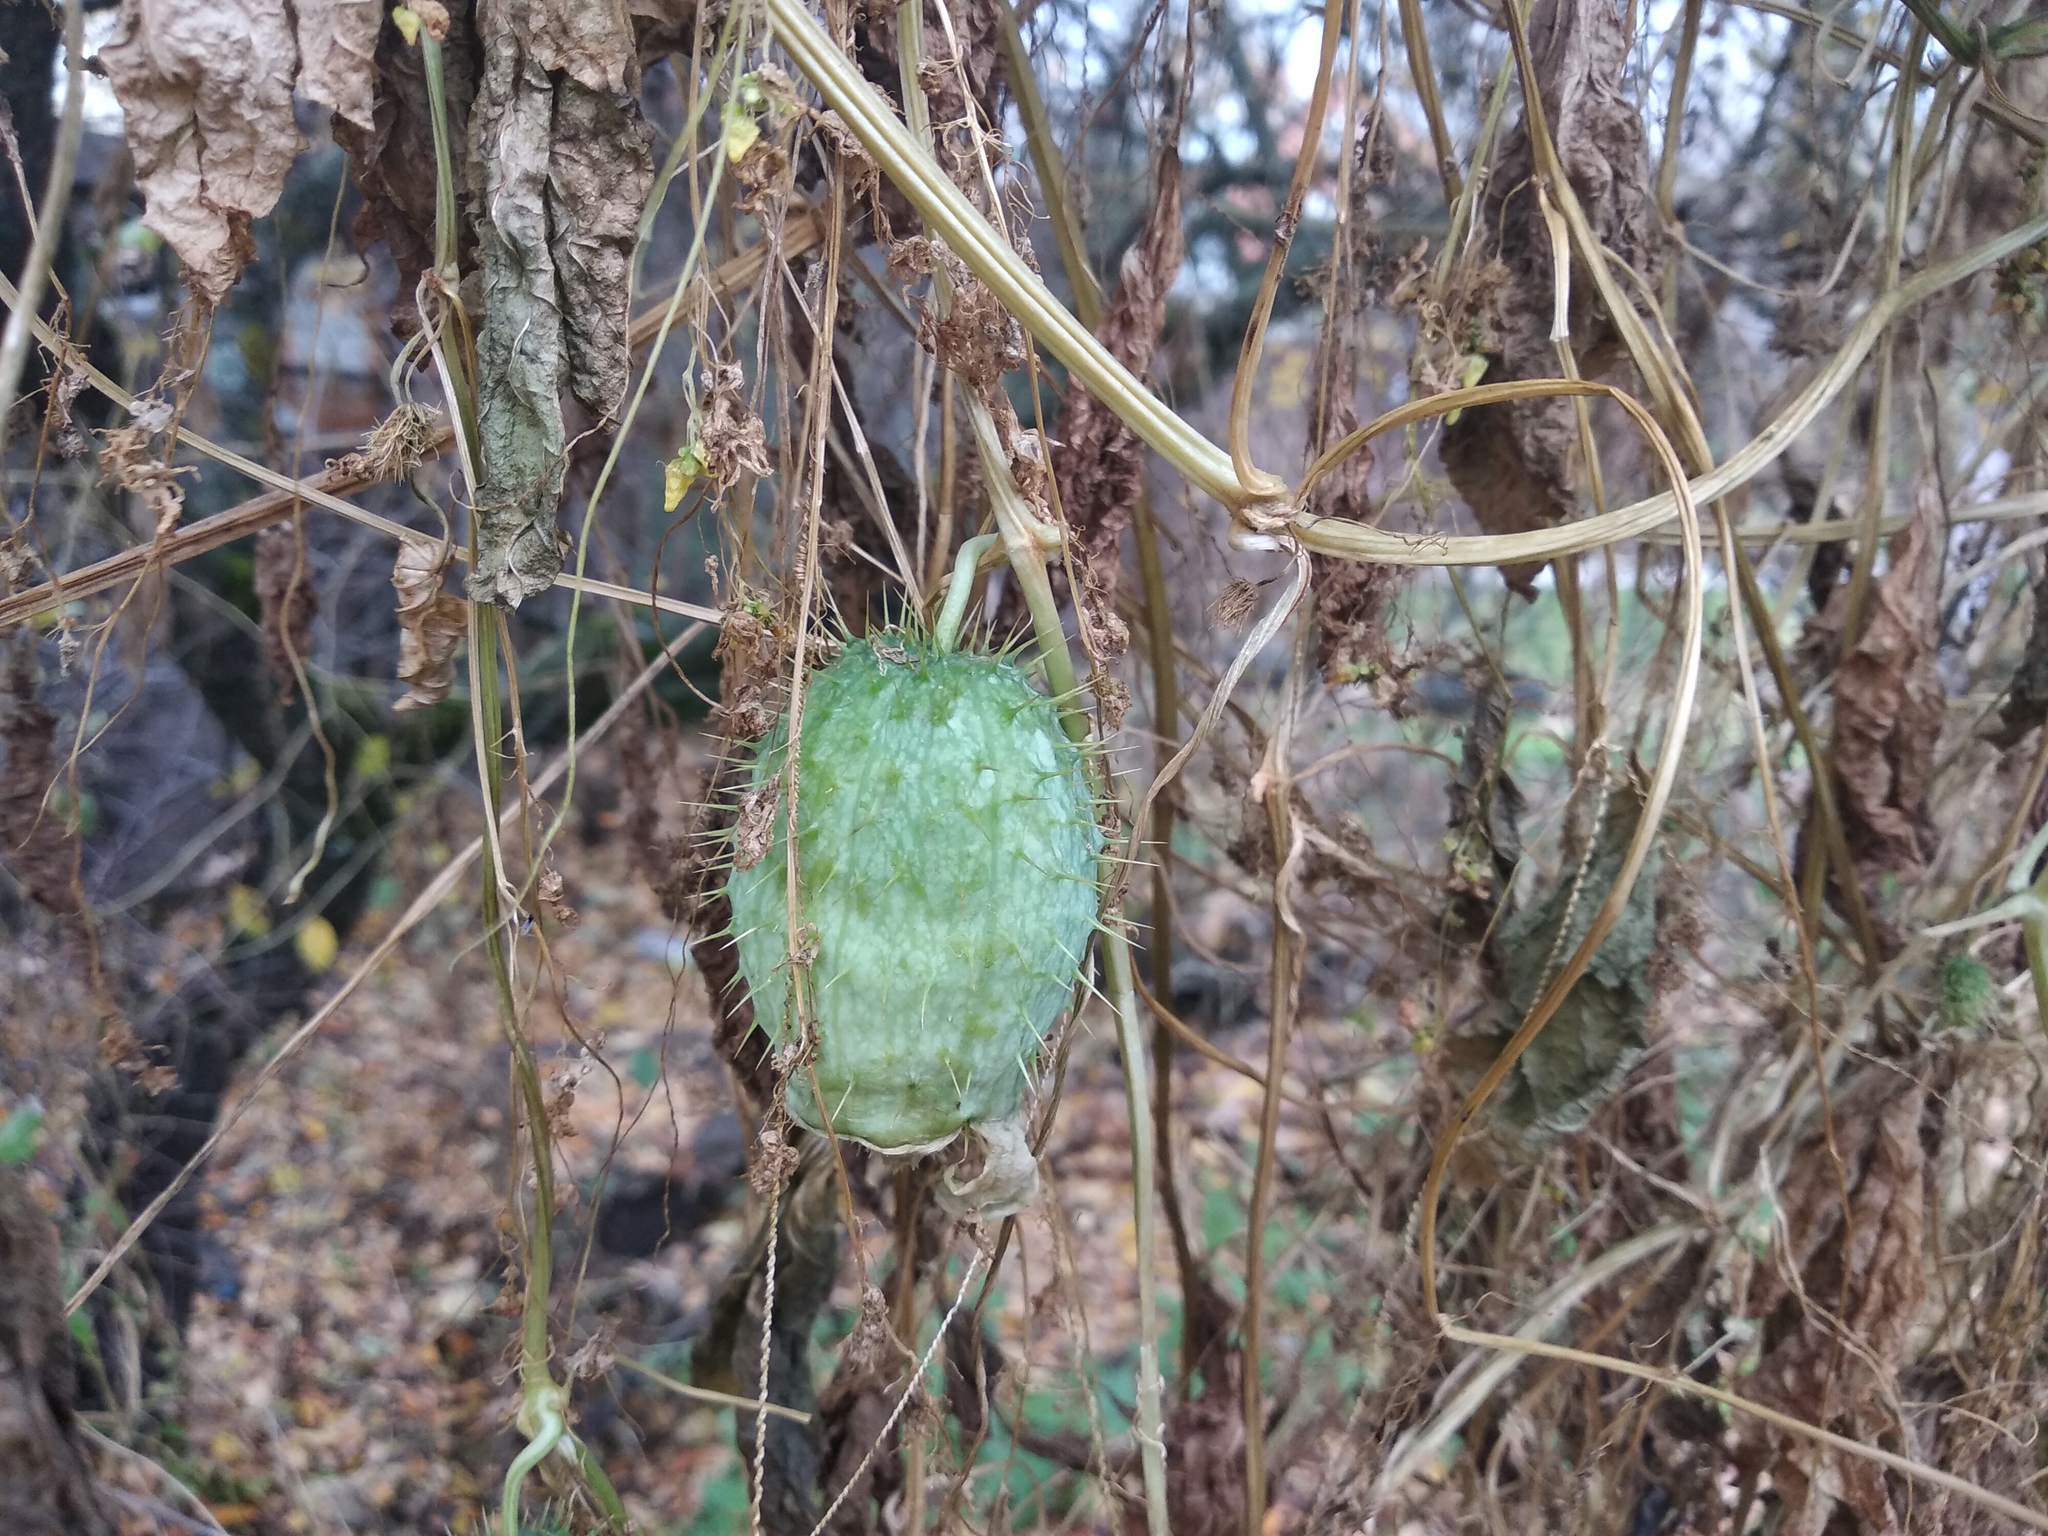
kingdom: Plantae
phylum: Tracheophyta
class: Magnoliopsida
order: Cucurbitales
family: Cucurbitaceae
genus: Echinocystis
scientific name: Echinocystis lobata
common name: Wild cucumber
